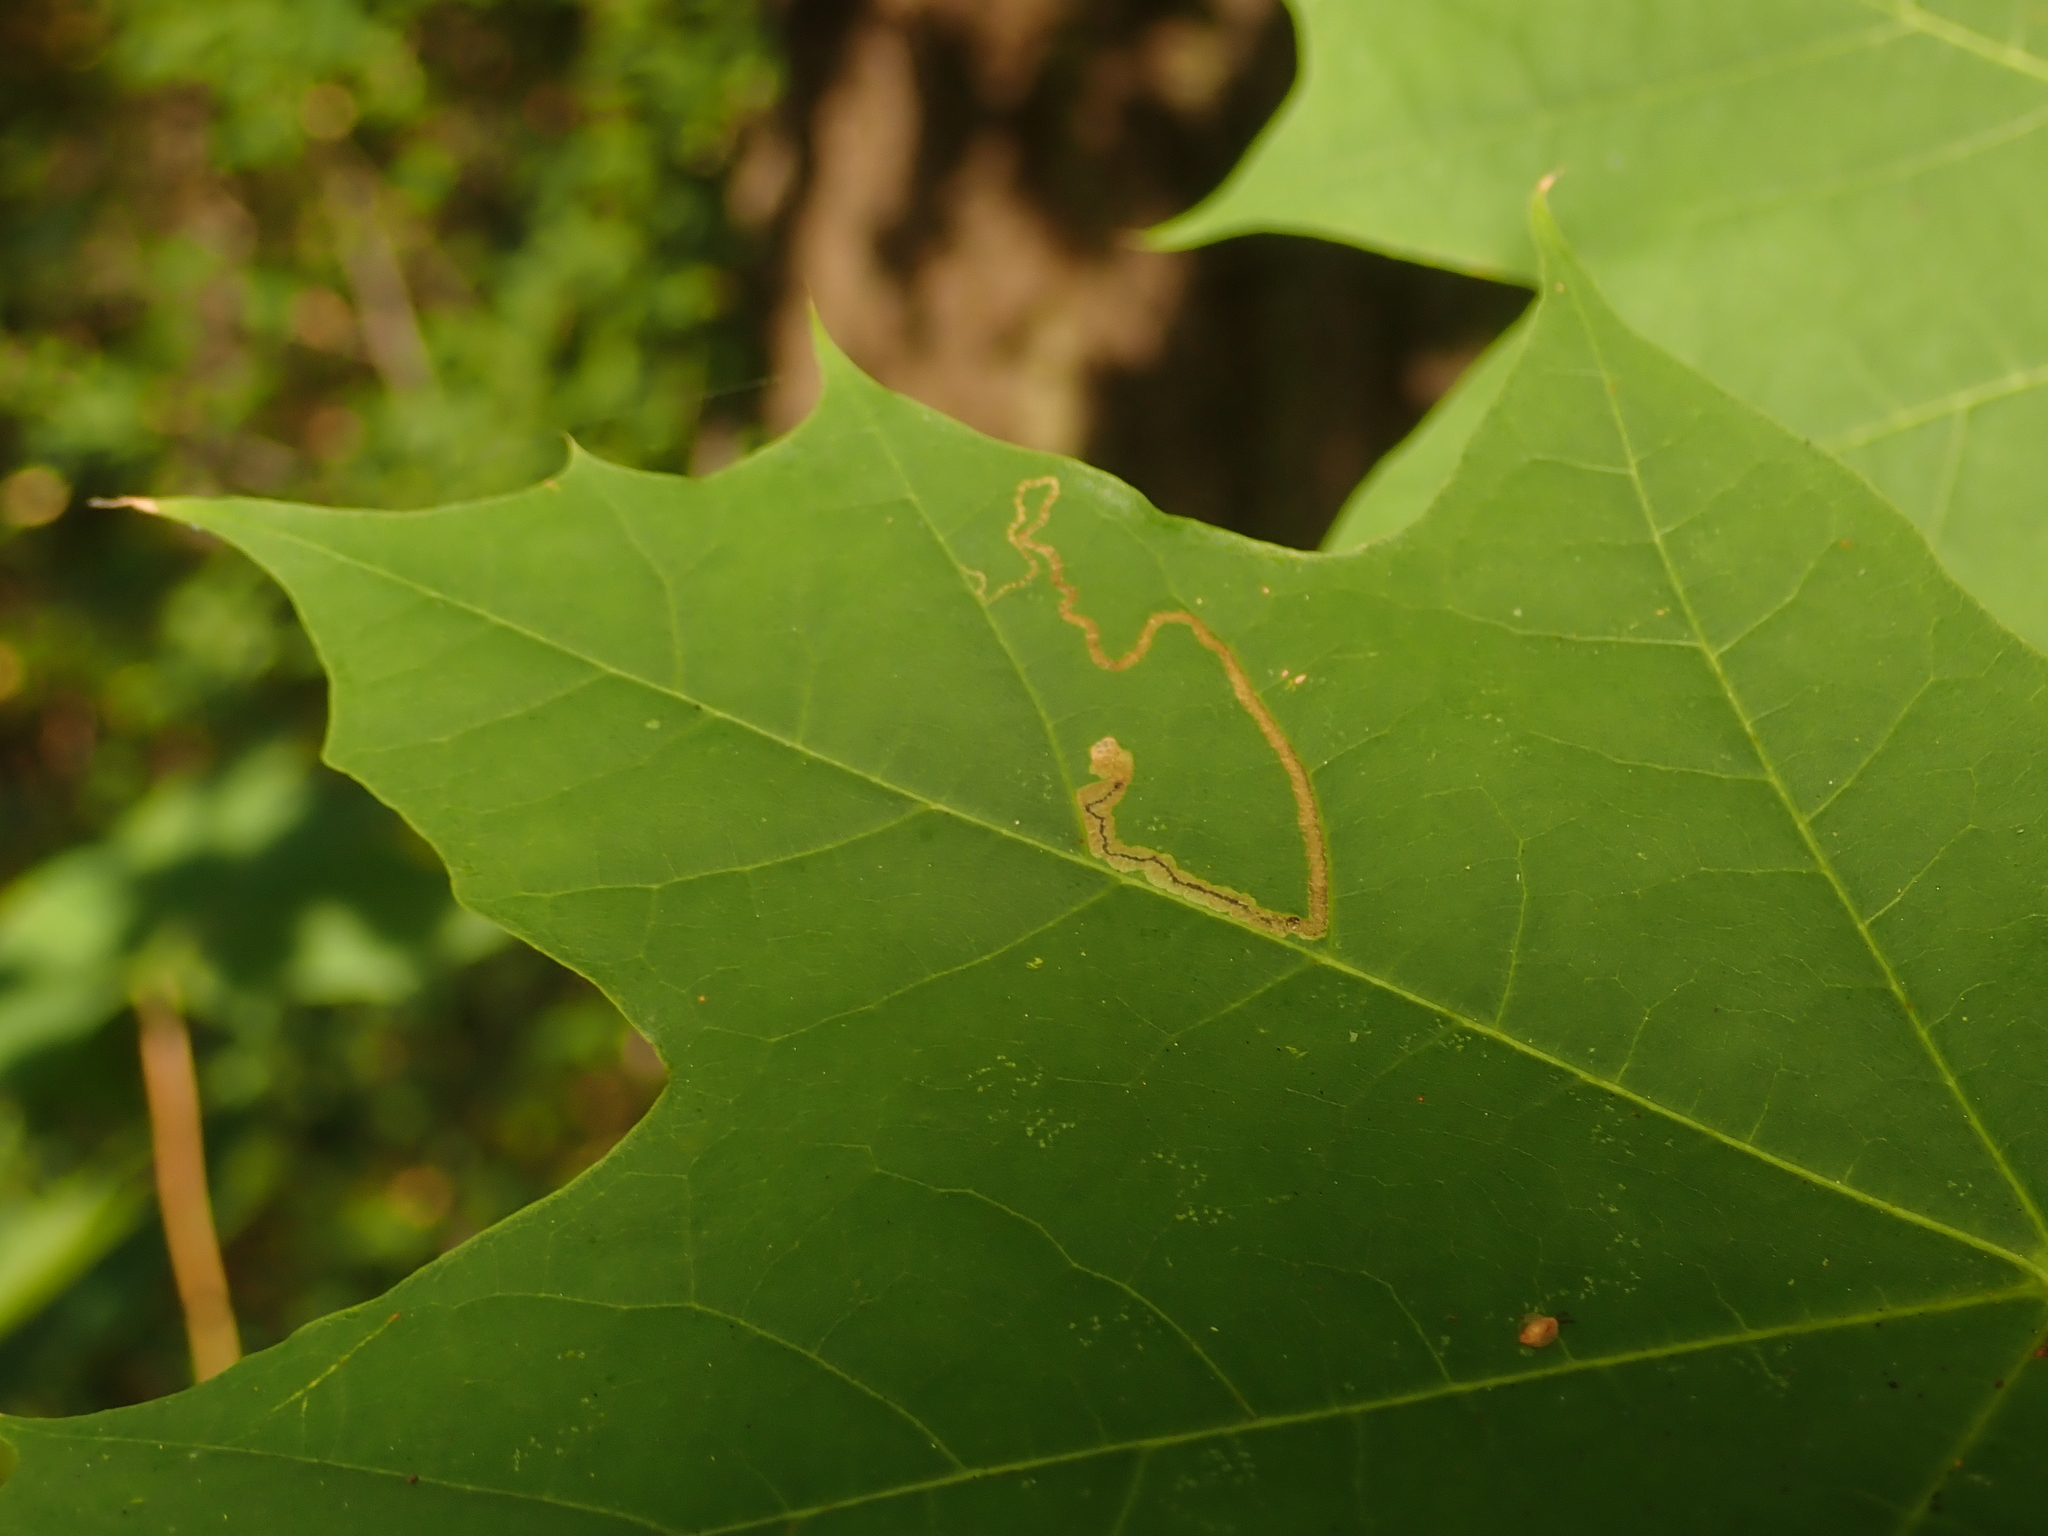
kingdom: Animalia
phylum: Arthropoda
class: Insecta
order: Lepidoptera
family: Nepticulidae
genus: Stigmella
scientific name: Stigmella aceris
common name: Scarce maple pigmy
